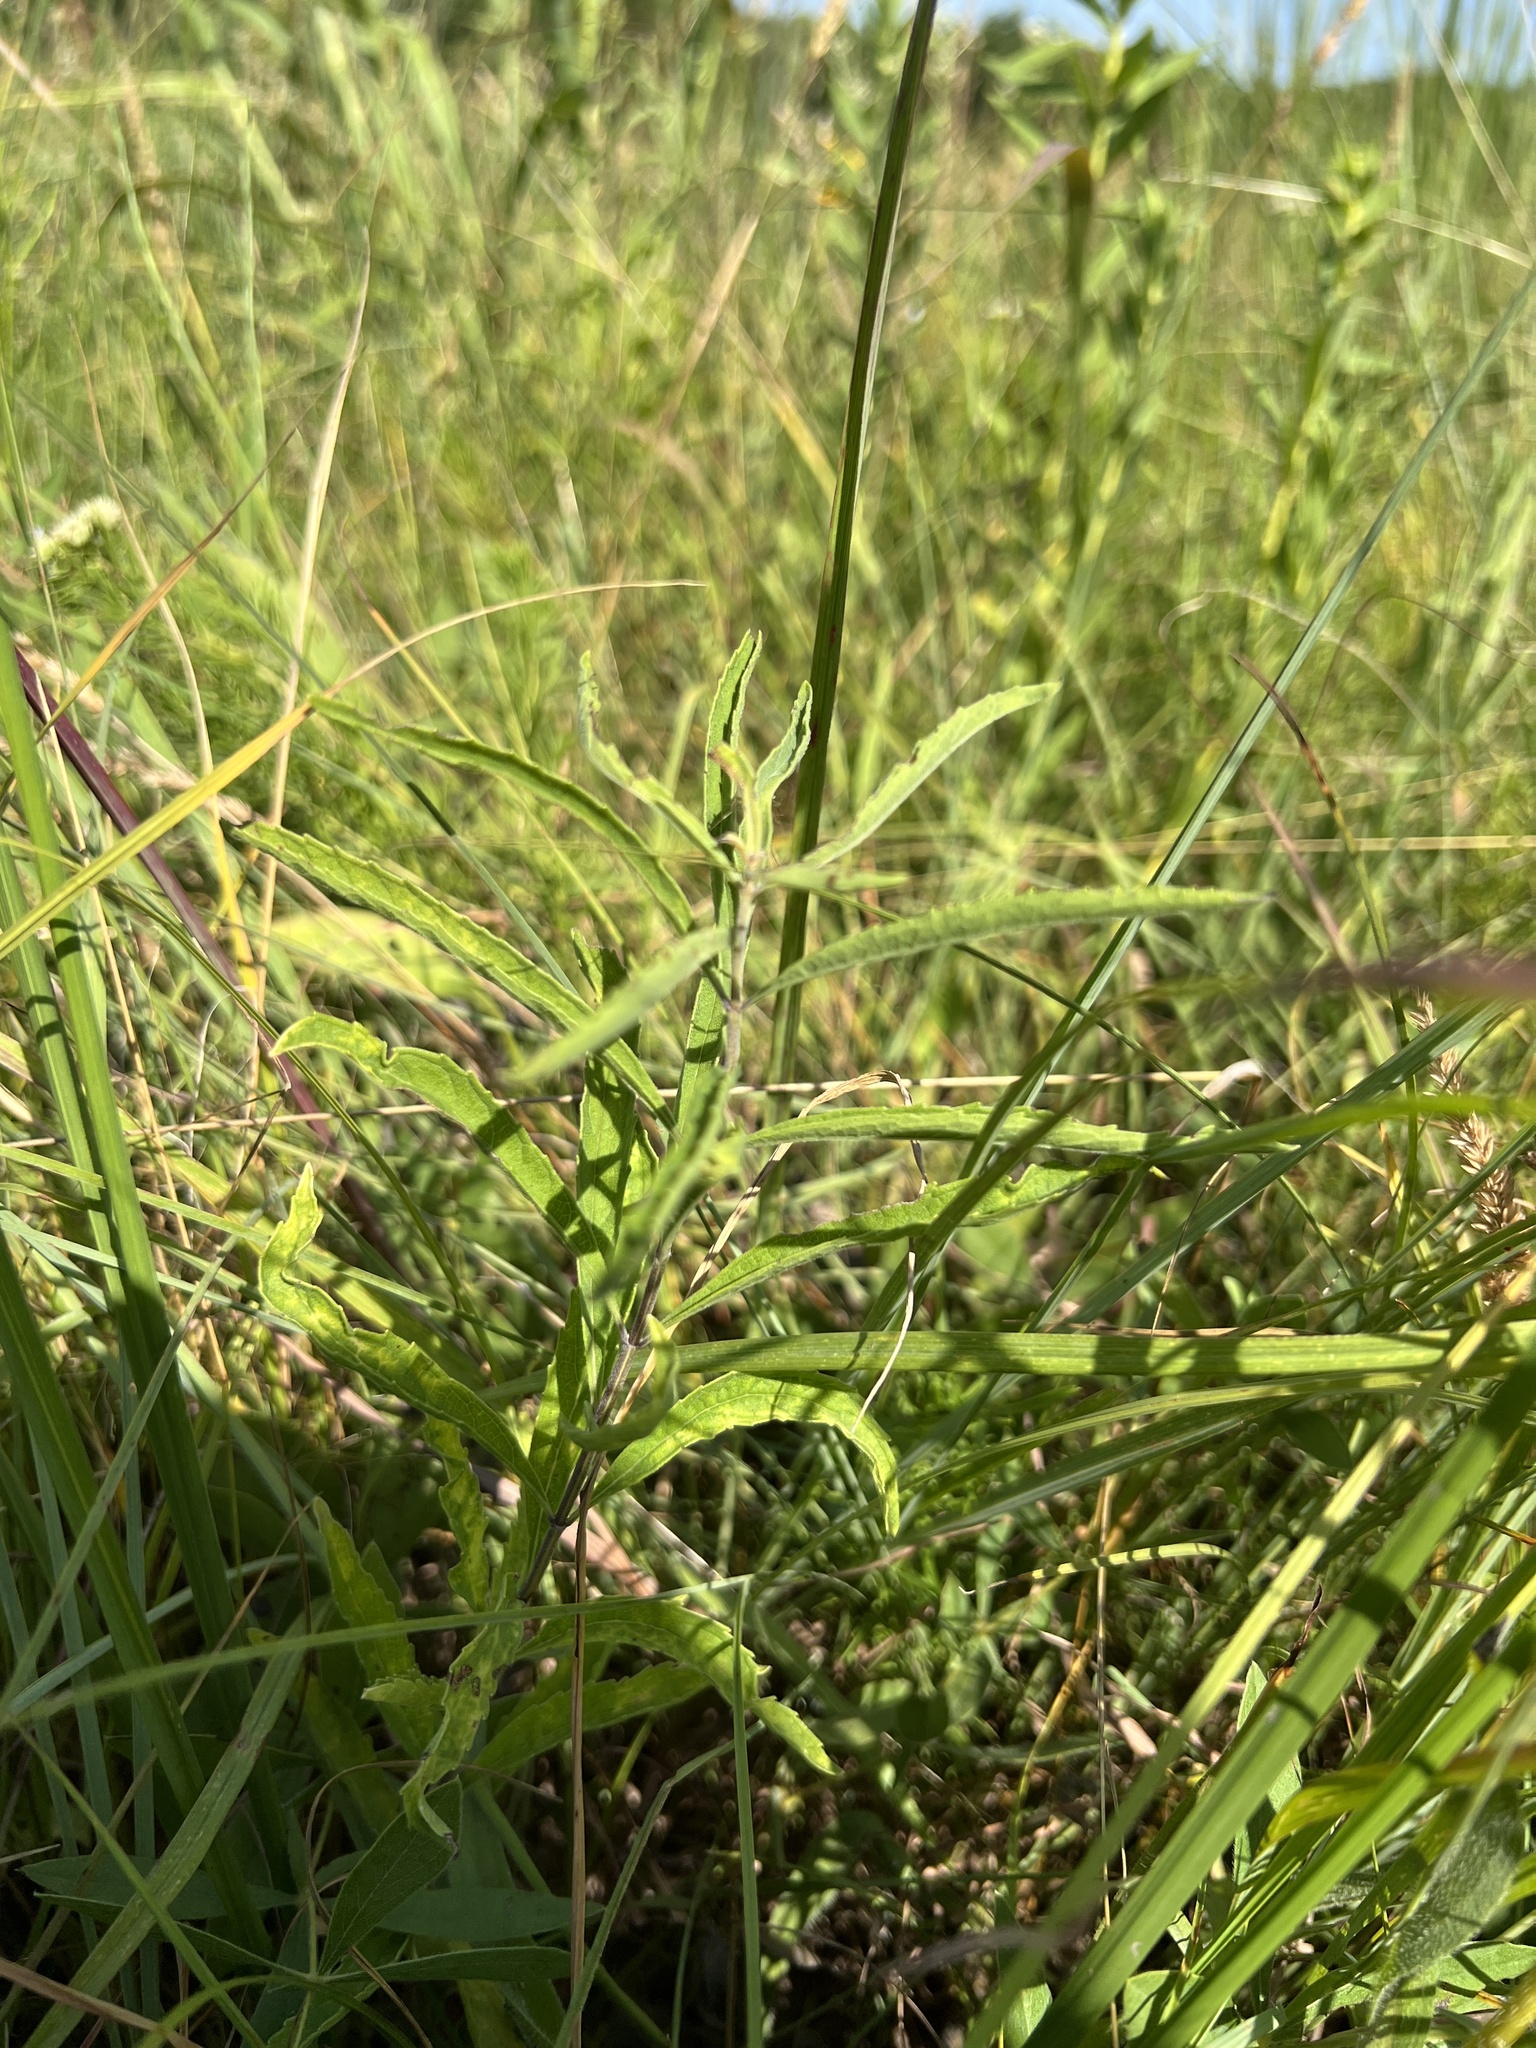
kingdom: Plantae
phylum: Tracheophyta
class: Magnoliopsida
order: Lamiales
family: Lamiaceae
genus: Salvia
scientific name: Salvia azurea
